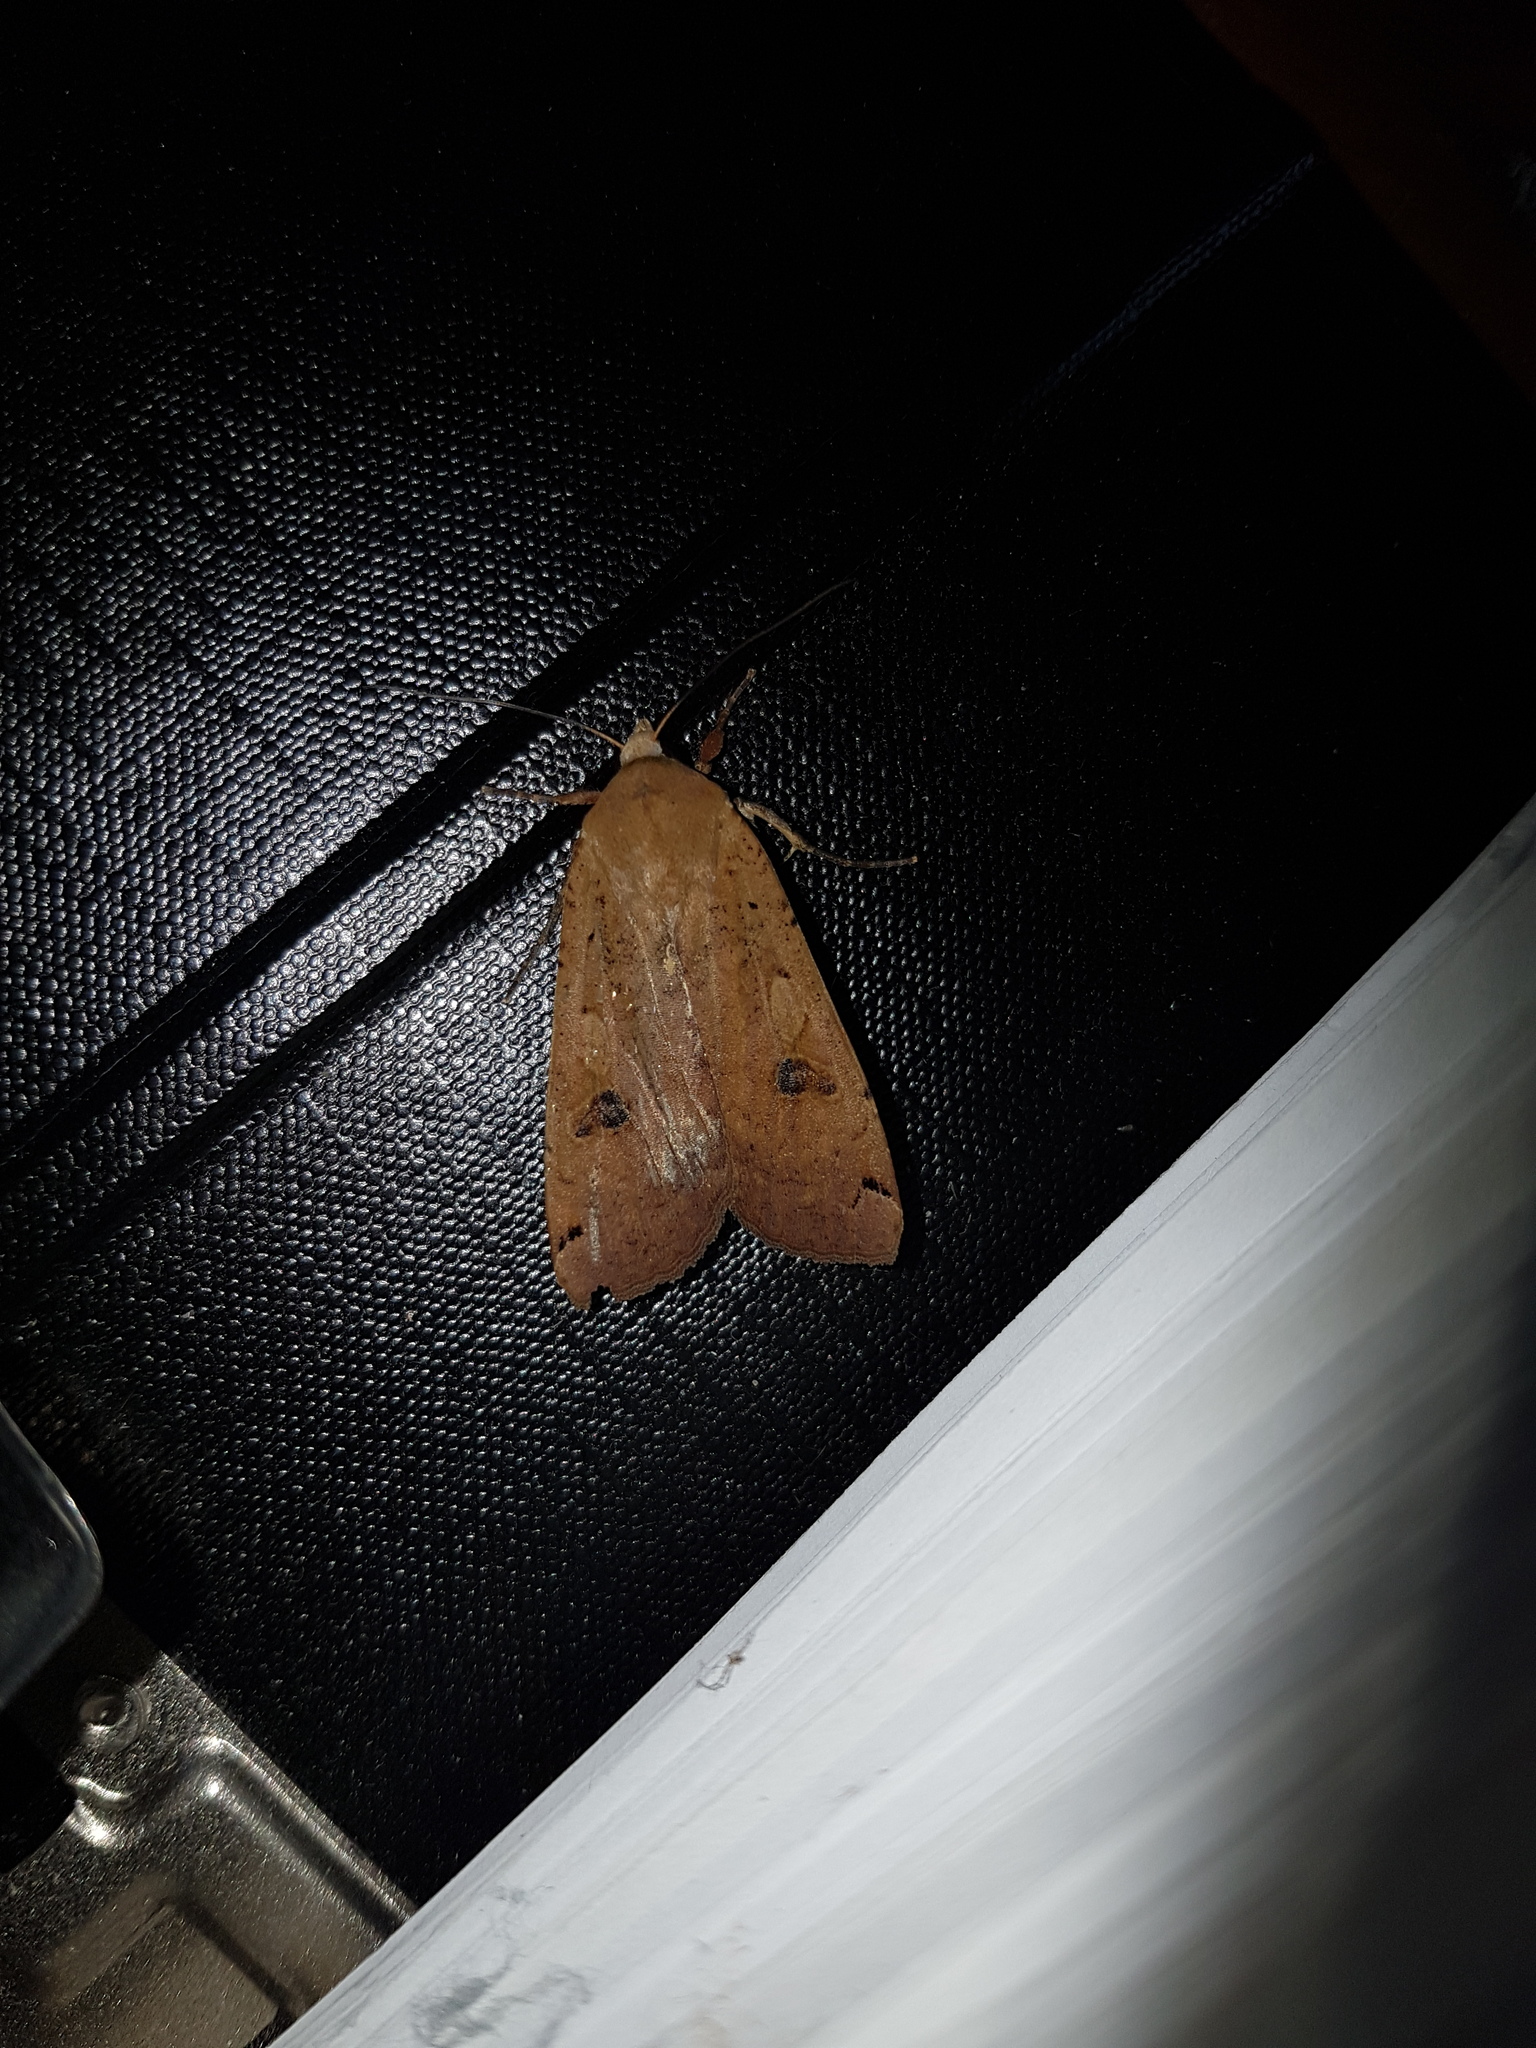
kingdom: Animalia
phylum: Arthropoda
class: Insecta
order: Lepidoptera
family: Noctuidae
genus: Noctua
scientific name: Noctua pronuba
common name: Large yellow underwing
